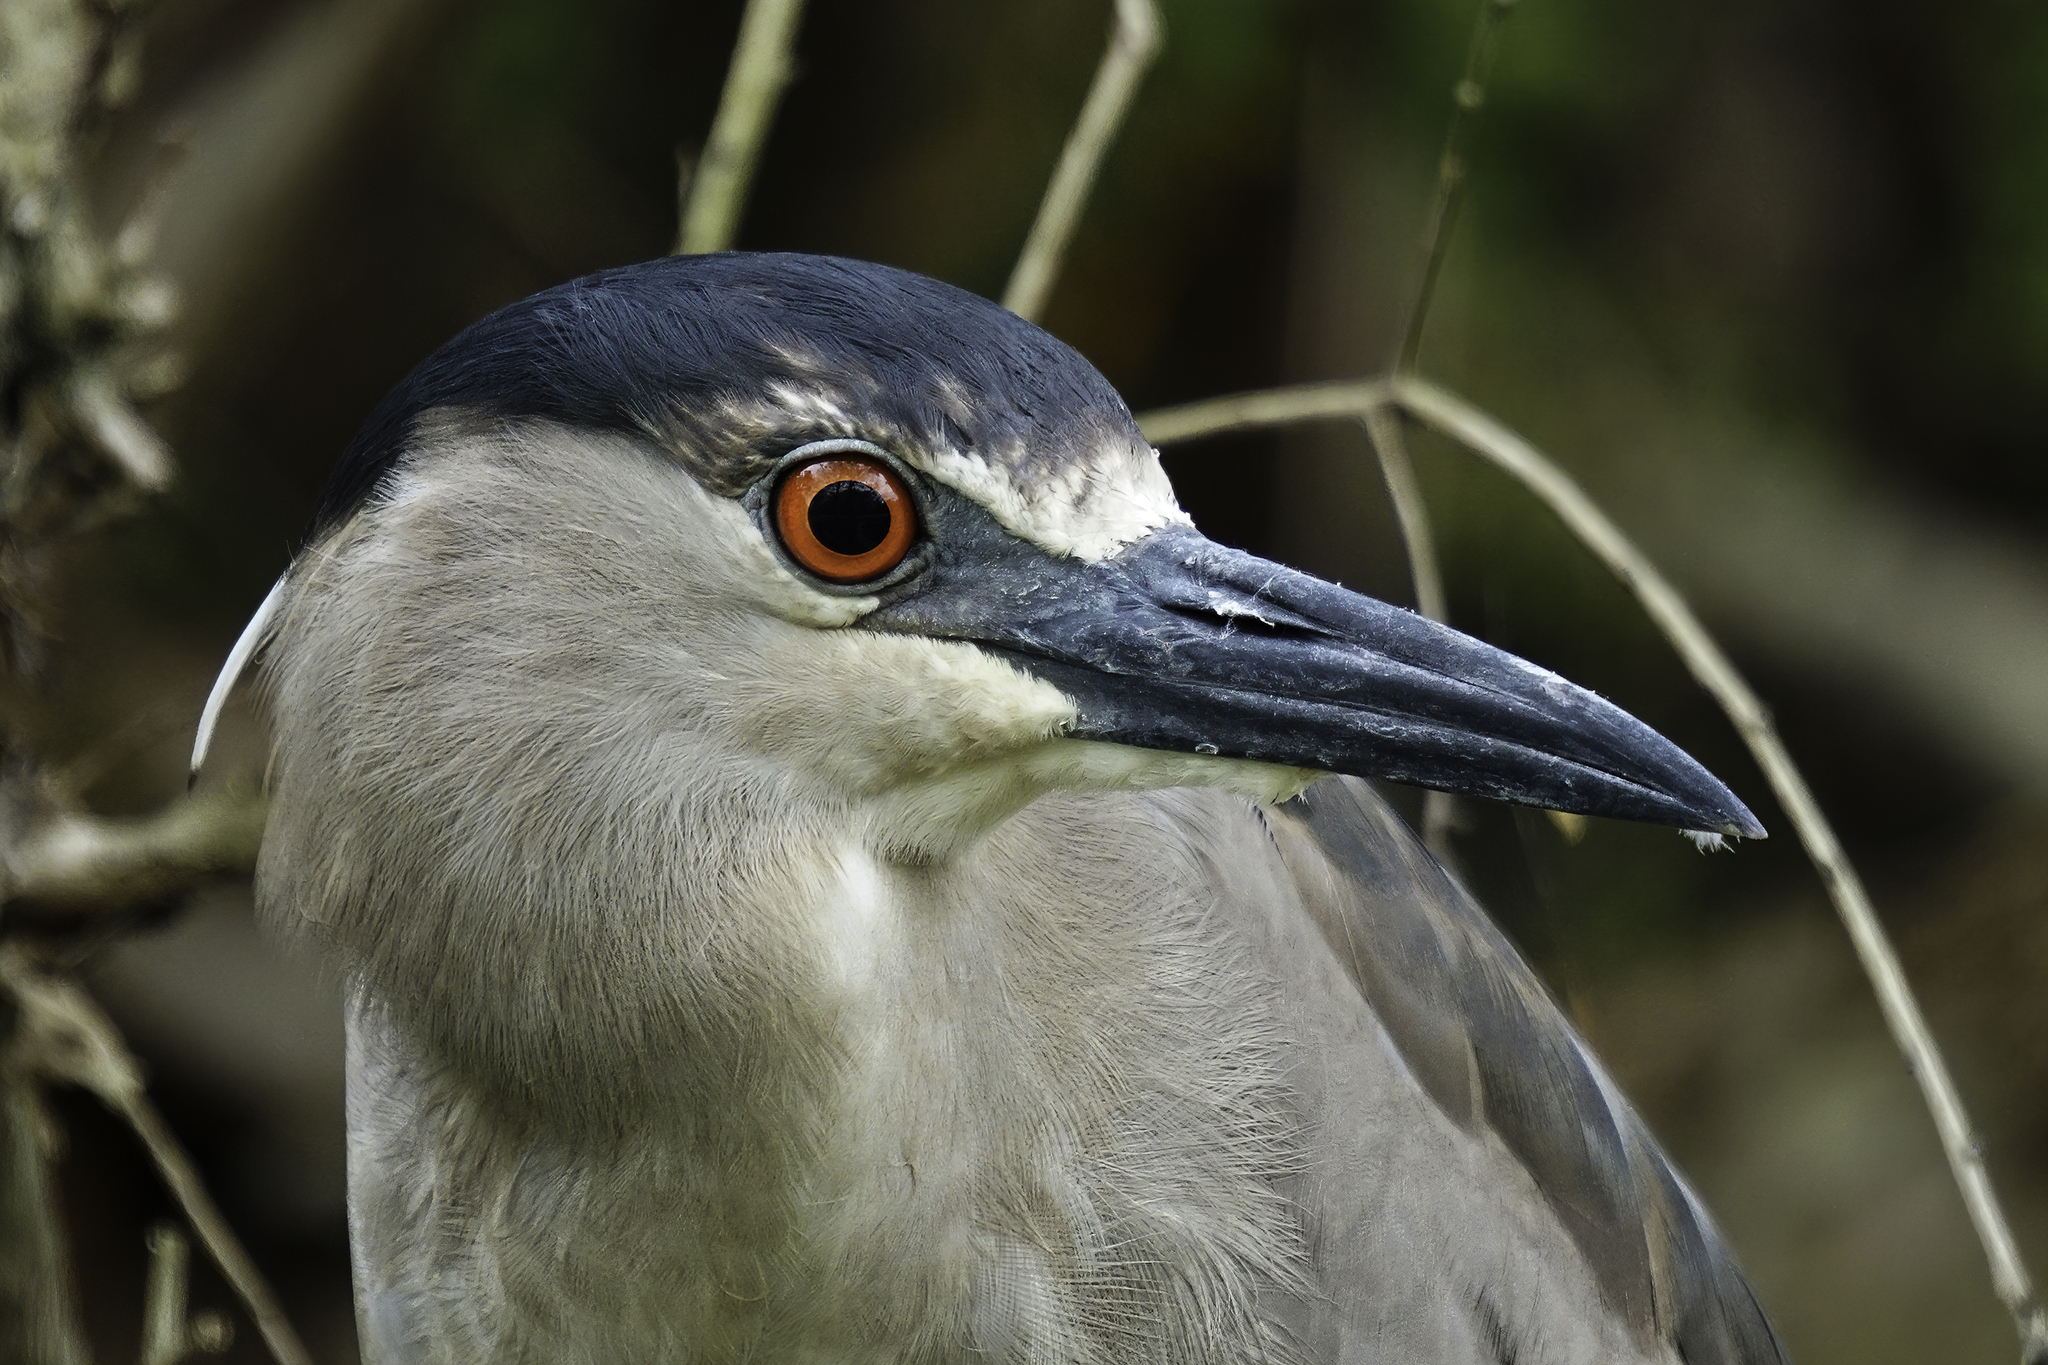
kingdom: Animalia
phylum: Chordata
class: Aves
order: Pelecaniformes
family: Ardeidae
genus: Nycticorax
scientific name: Nycticorax nycticorax
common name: Black-crowned night heron
